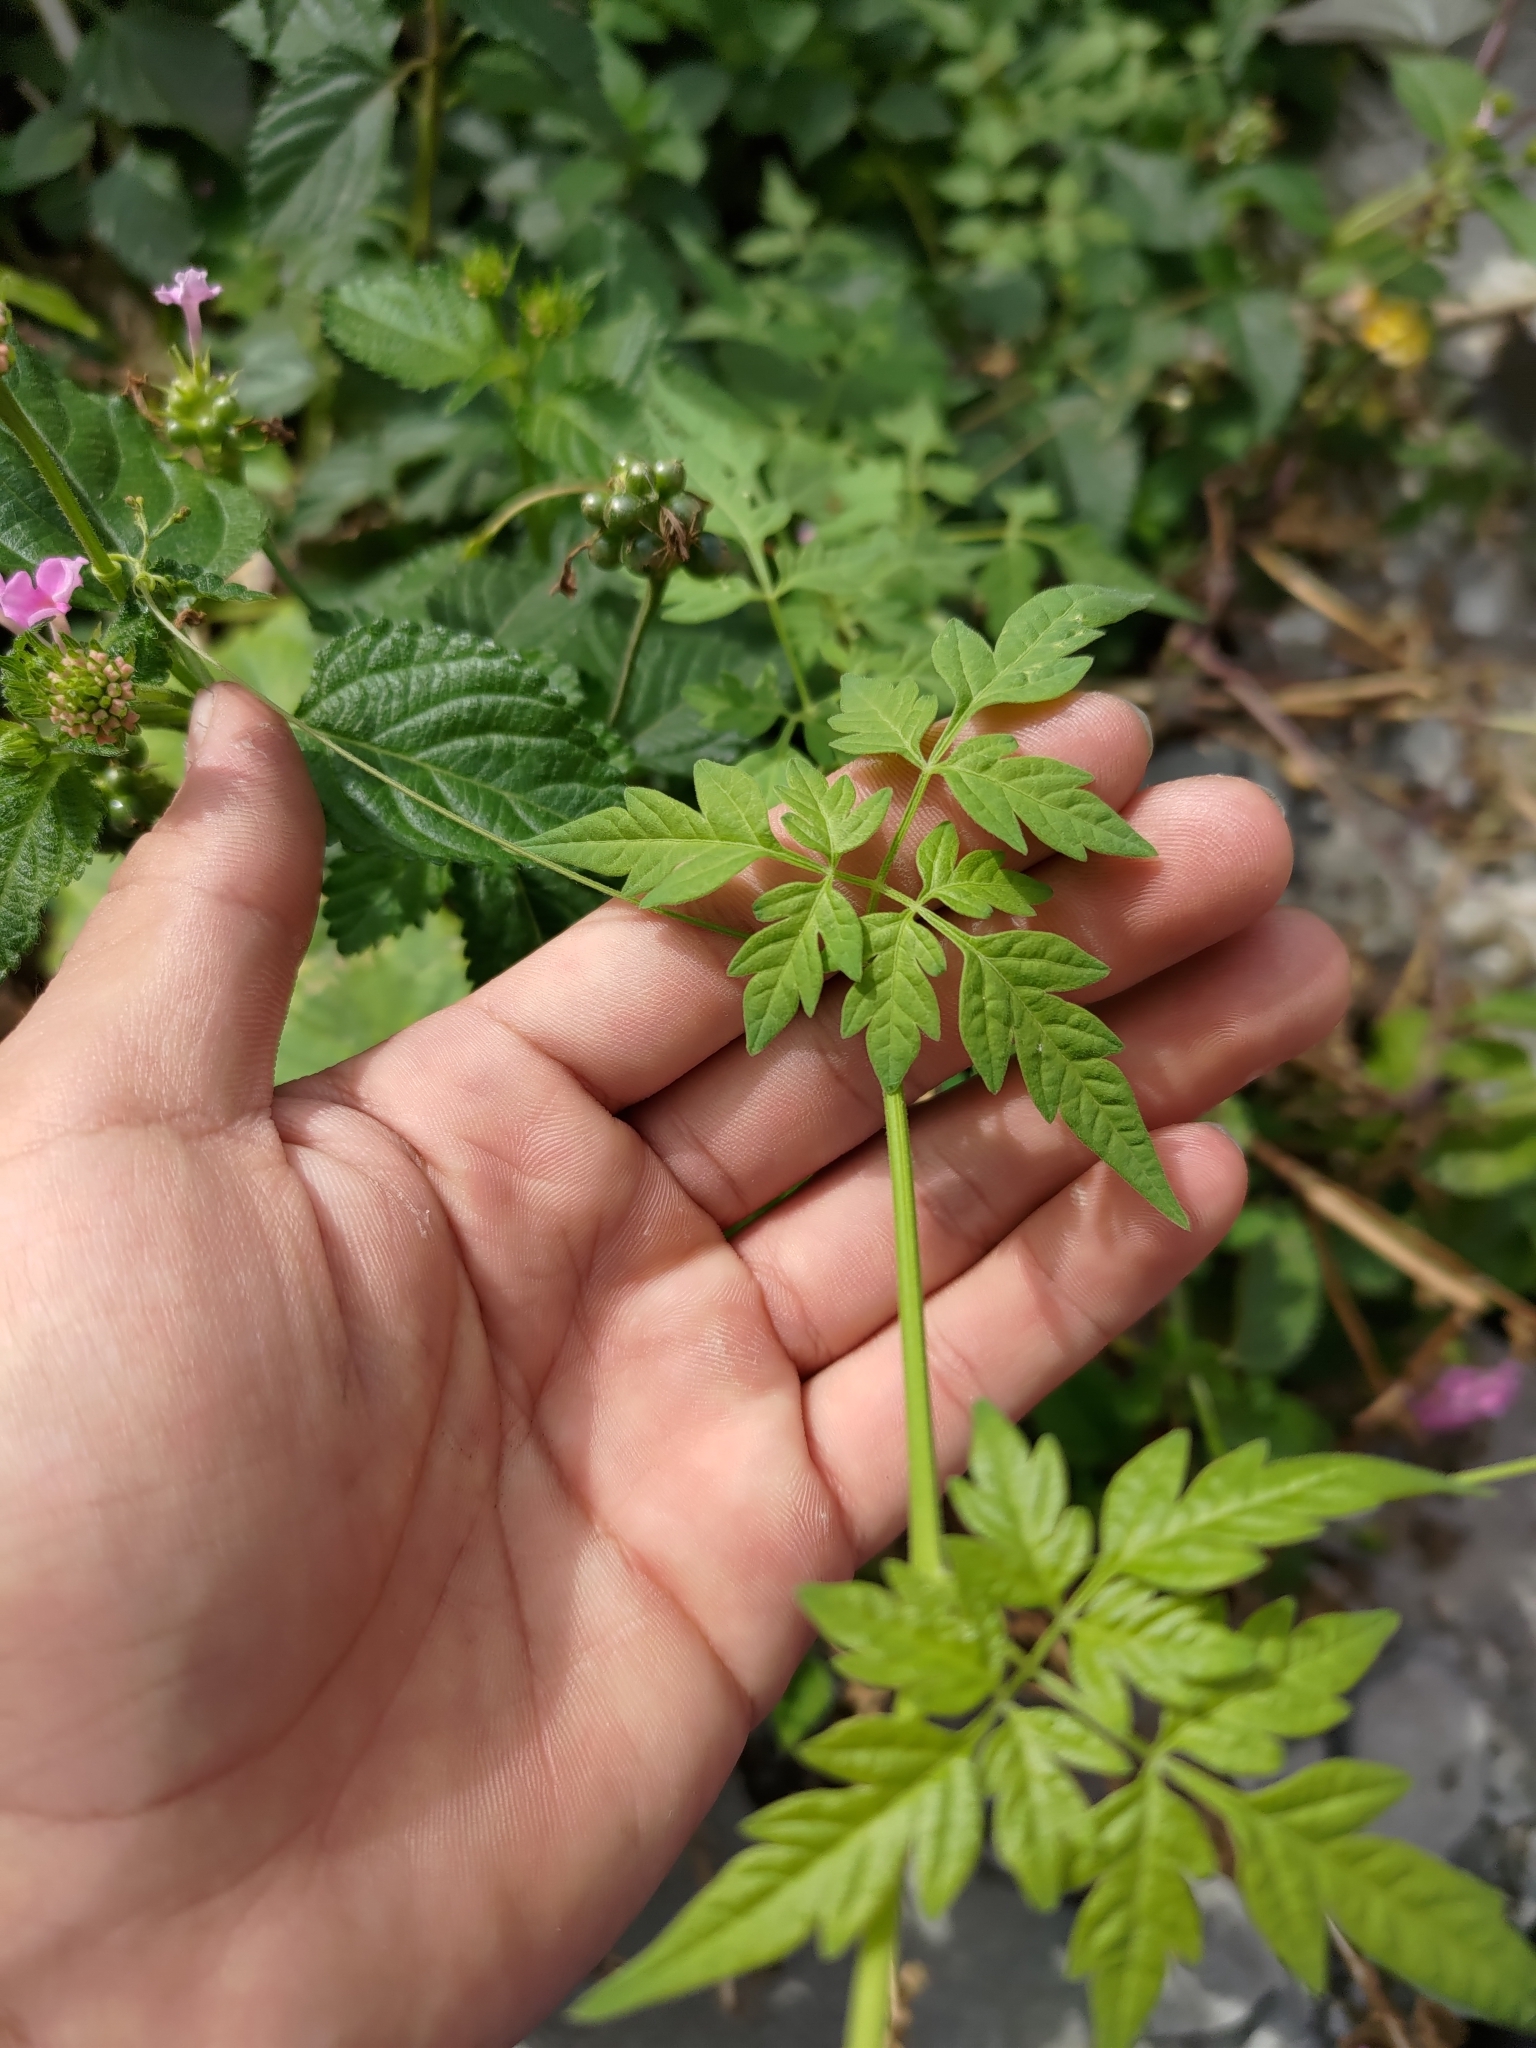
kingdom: Plantae
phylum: Tracheophyta
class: Magnoliopsida
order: Sapindales
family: Sapindaceae
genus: Cardiospermum
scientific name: Cardiospermum halicacabum
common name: Balloon vine
